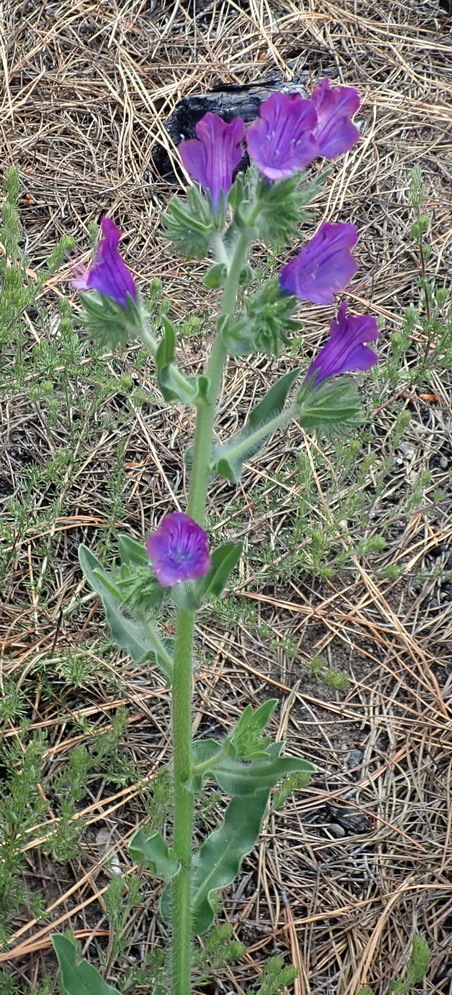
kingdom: Plantae
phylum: Tracheophyta
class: Magnoliopsida
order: Boraginales
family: Boraginaceae
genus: Echium
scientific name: Echium plantagineum
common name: Purple viper's-bugloss
